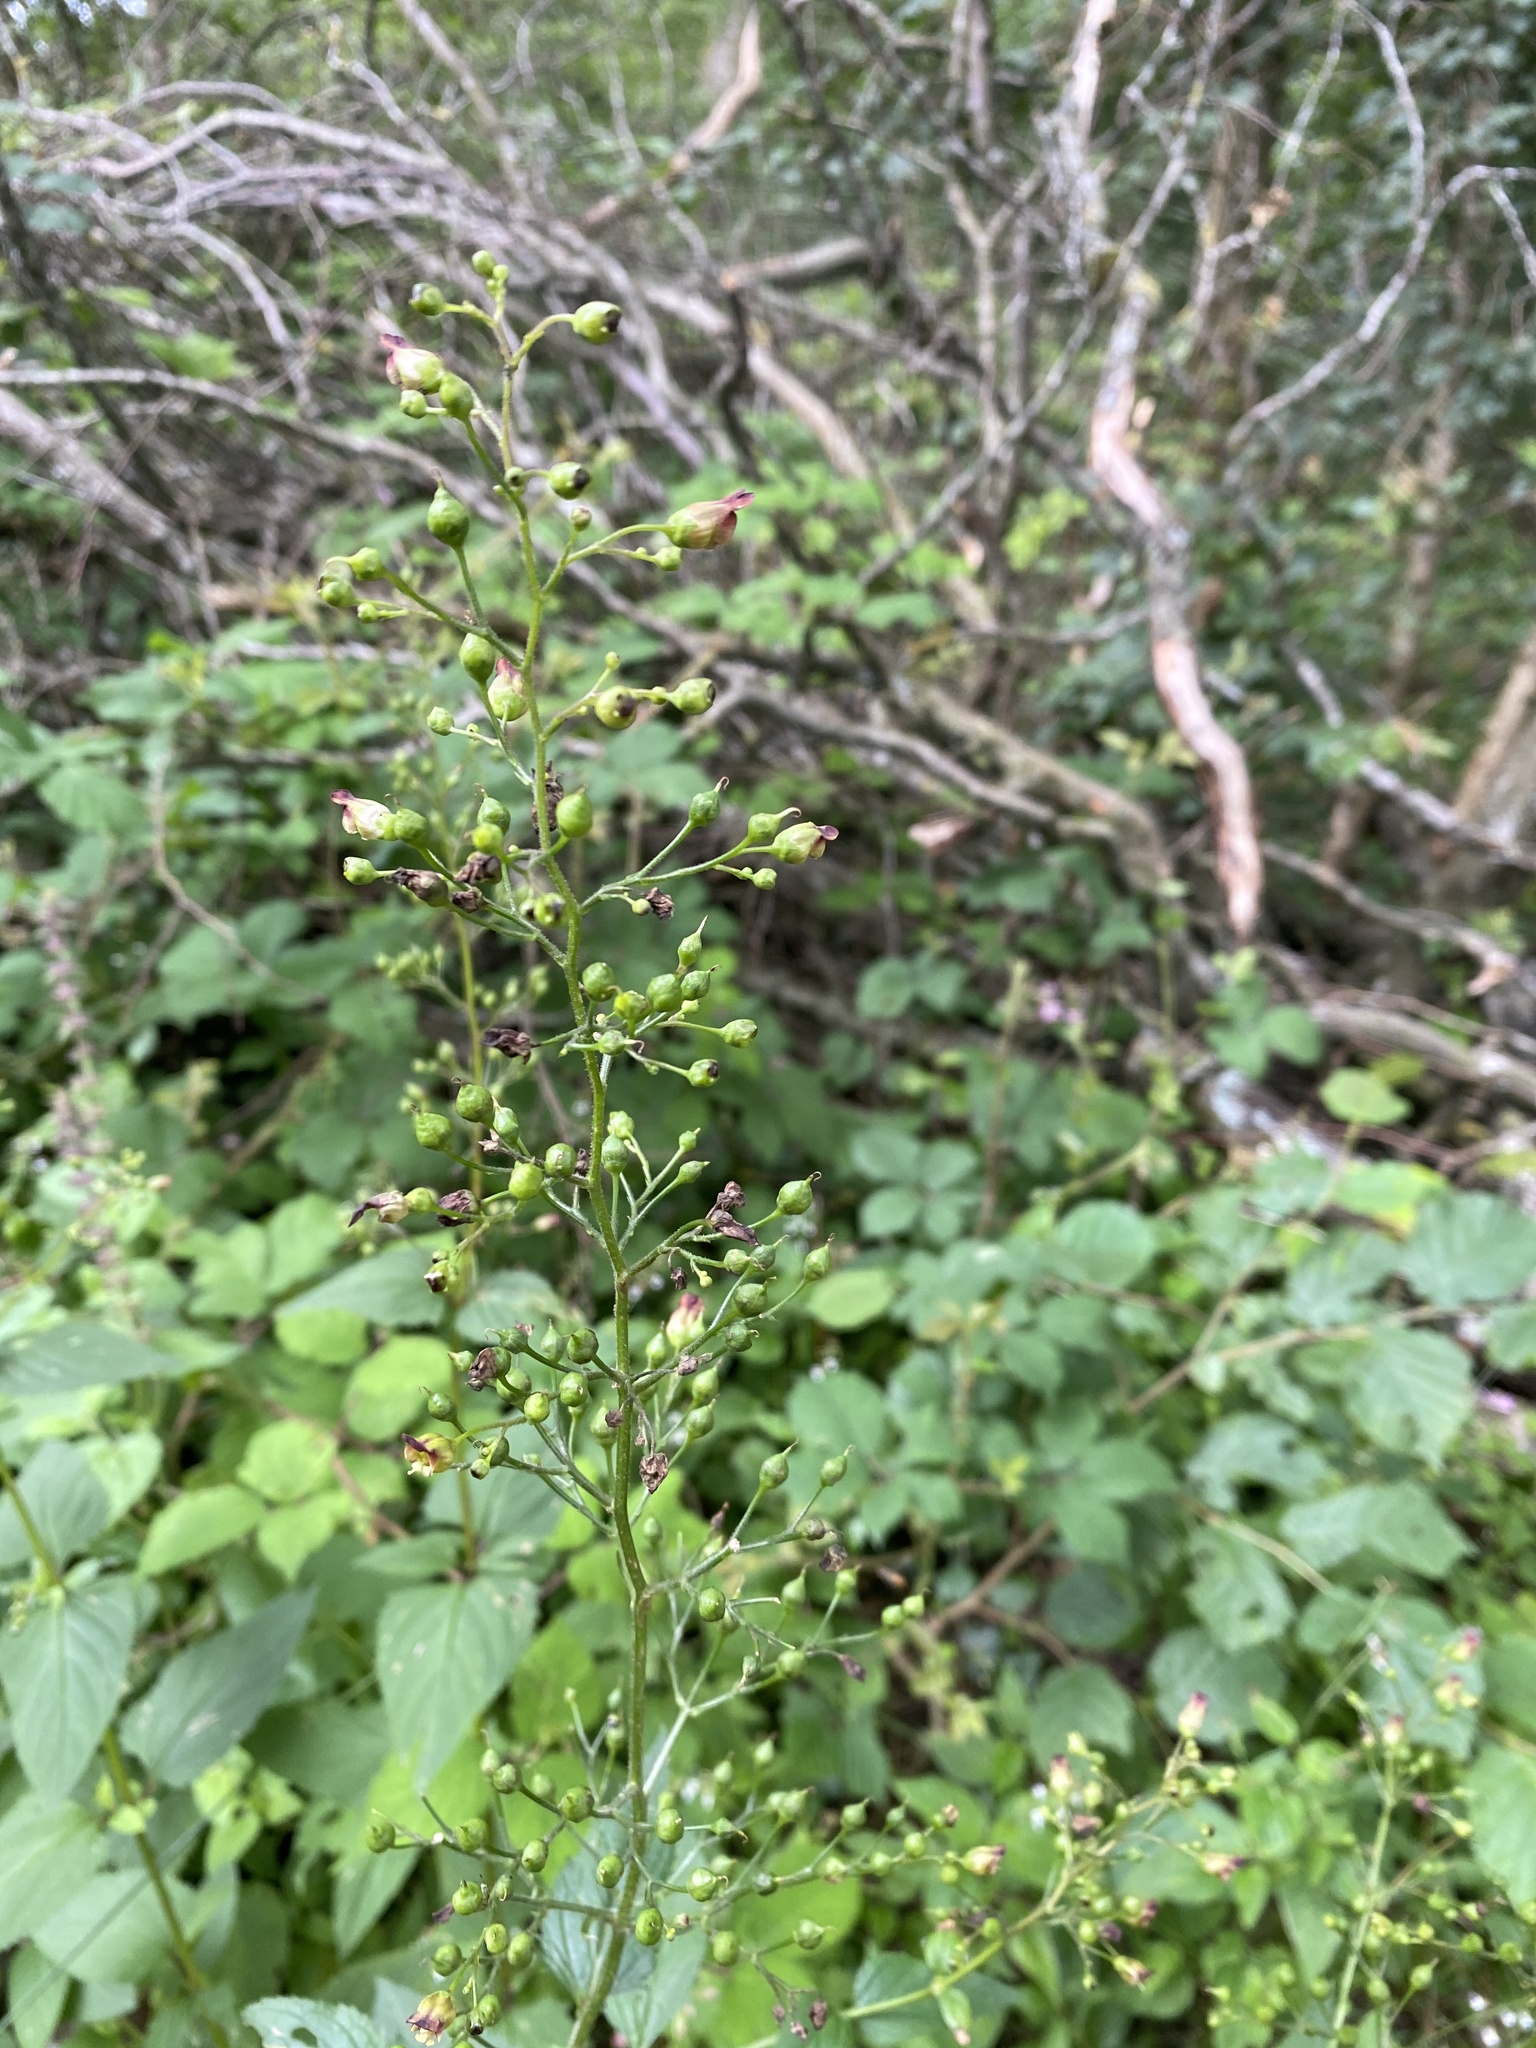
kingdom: Plantae
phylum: Tracheophyta
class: Magnoliopsida
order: Lamiales
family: Scrophulariaceae
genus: Scrophularia
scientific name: Scrophularia nodosa
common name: Common figwort
